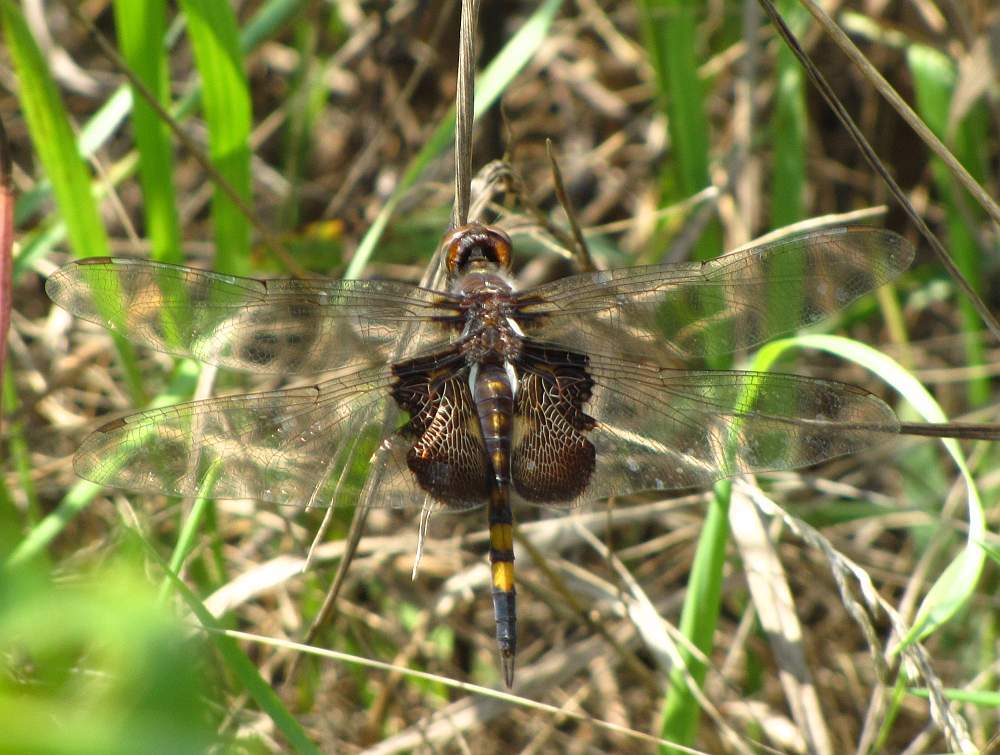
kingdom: Animalia
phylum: Arthropoda
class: Insecta
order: Odonata
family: Libellulidae
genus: Tramea
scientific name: Tramea lacerata
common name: Black saddlebags
